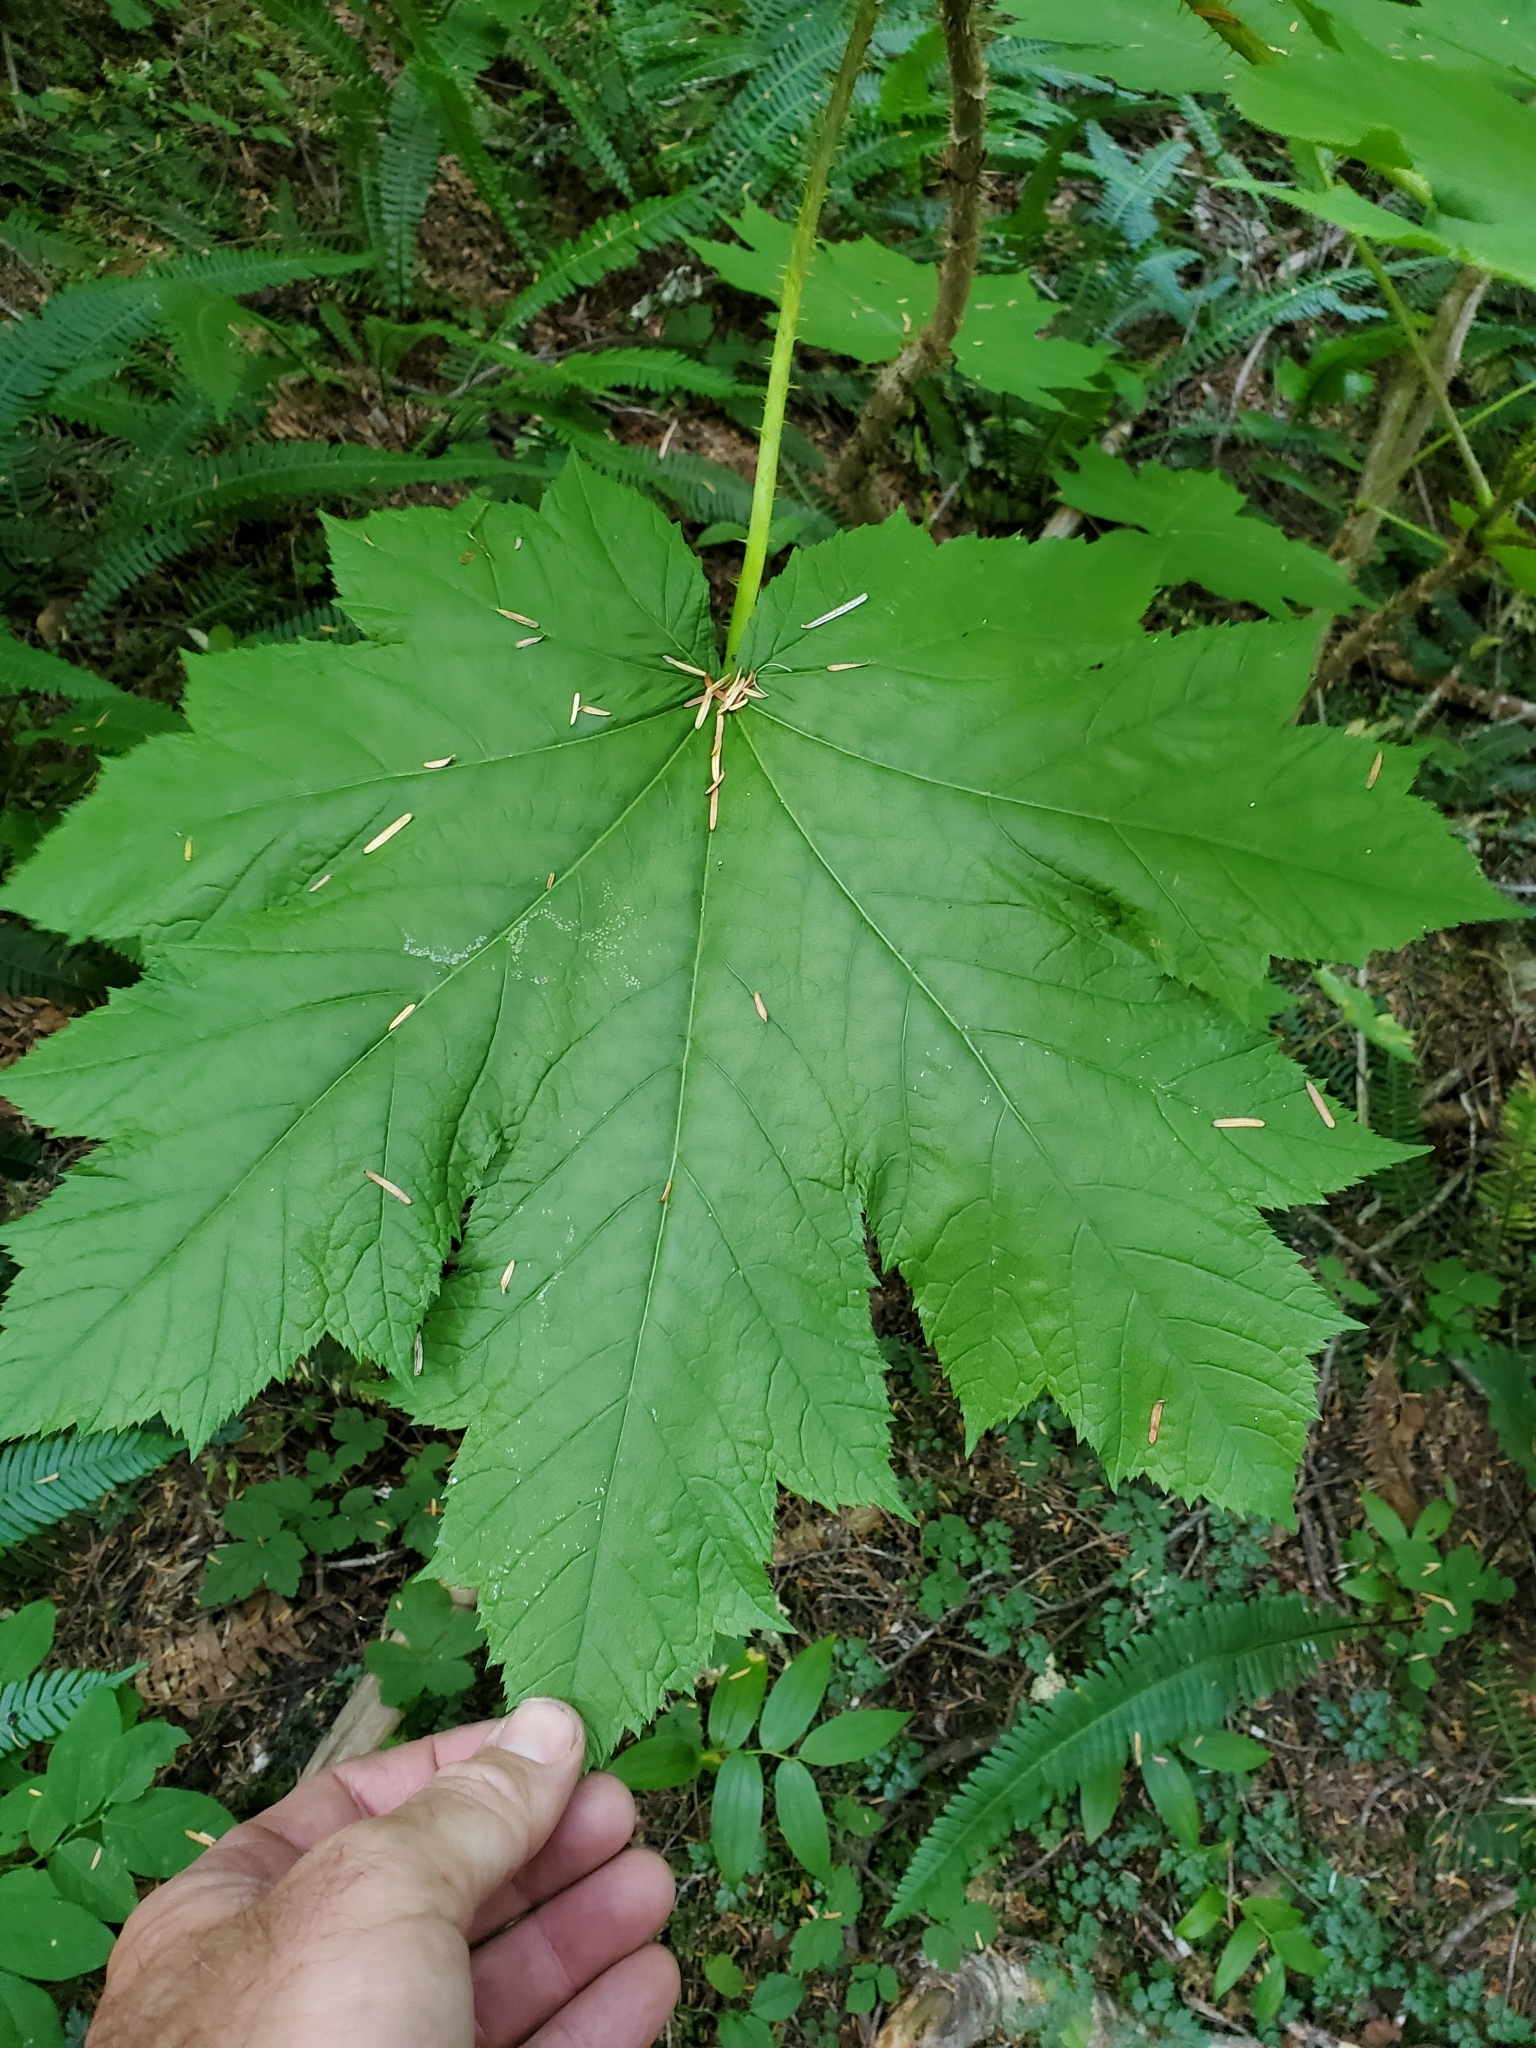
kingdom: Plantae
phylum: Tracheophyta
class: Magnoliopsida
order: Apiales
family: Araliaceae
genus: Oplopanax
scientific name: Oplopanax horridus
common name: Devil's walking-stick
